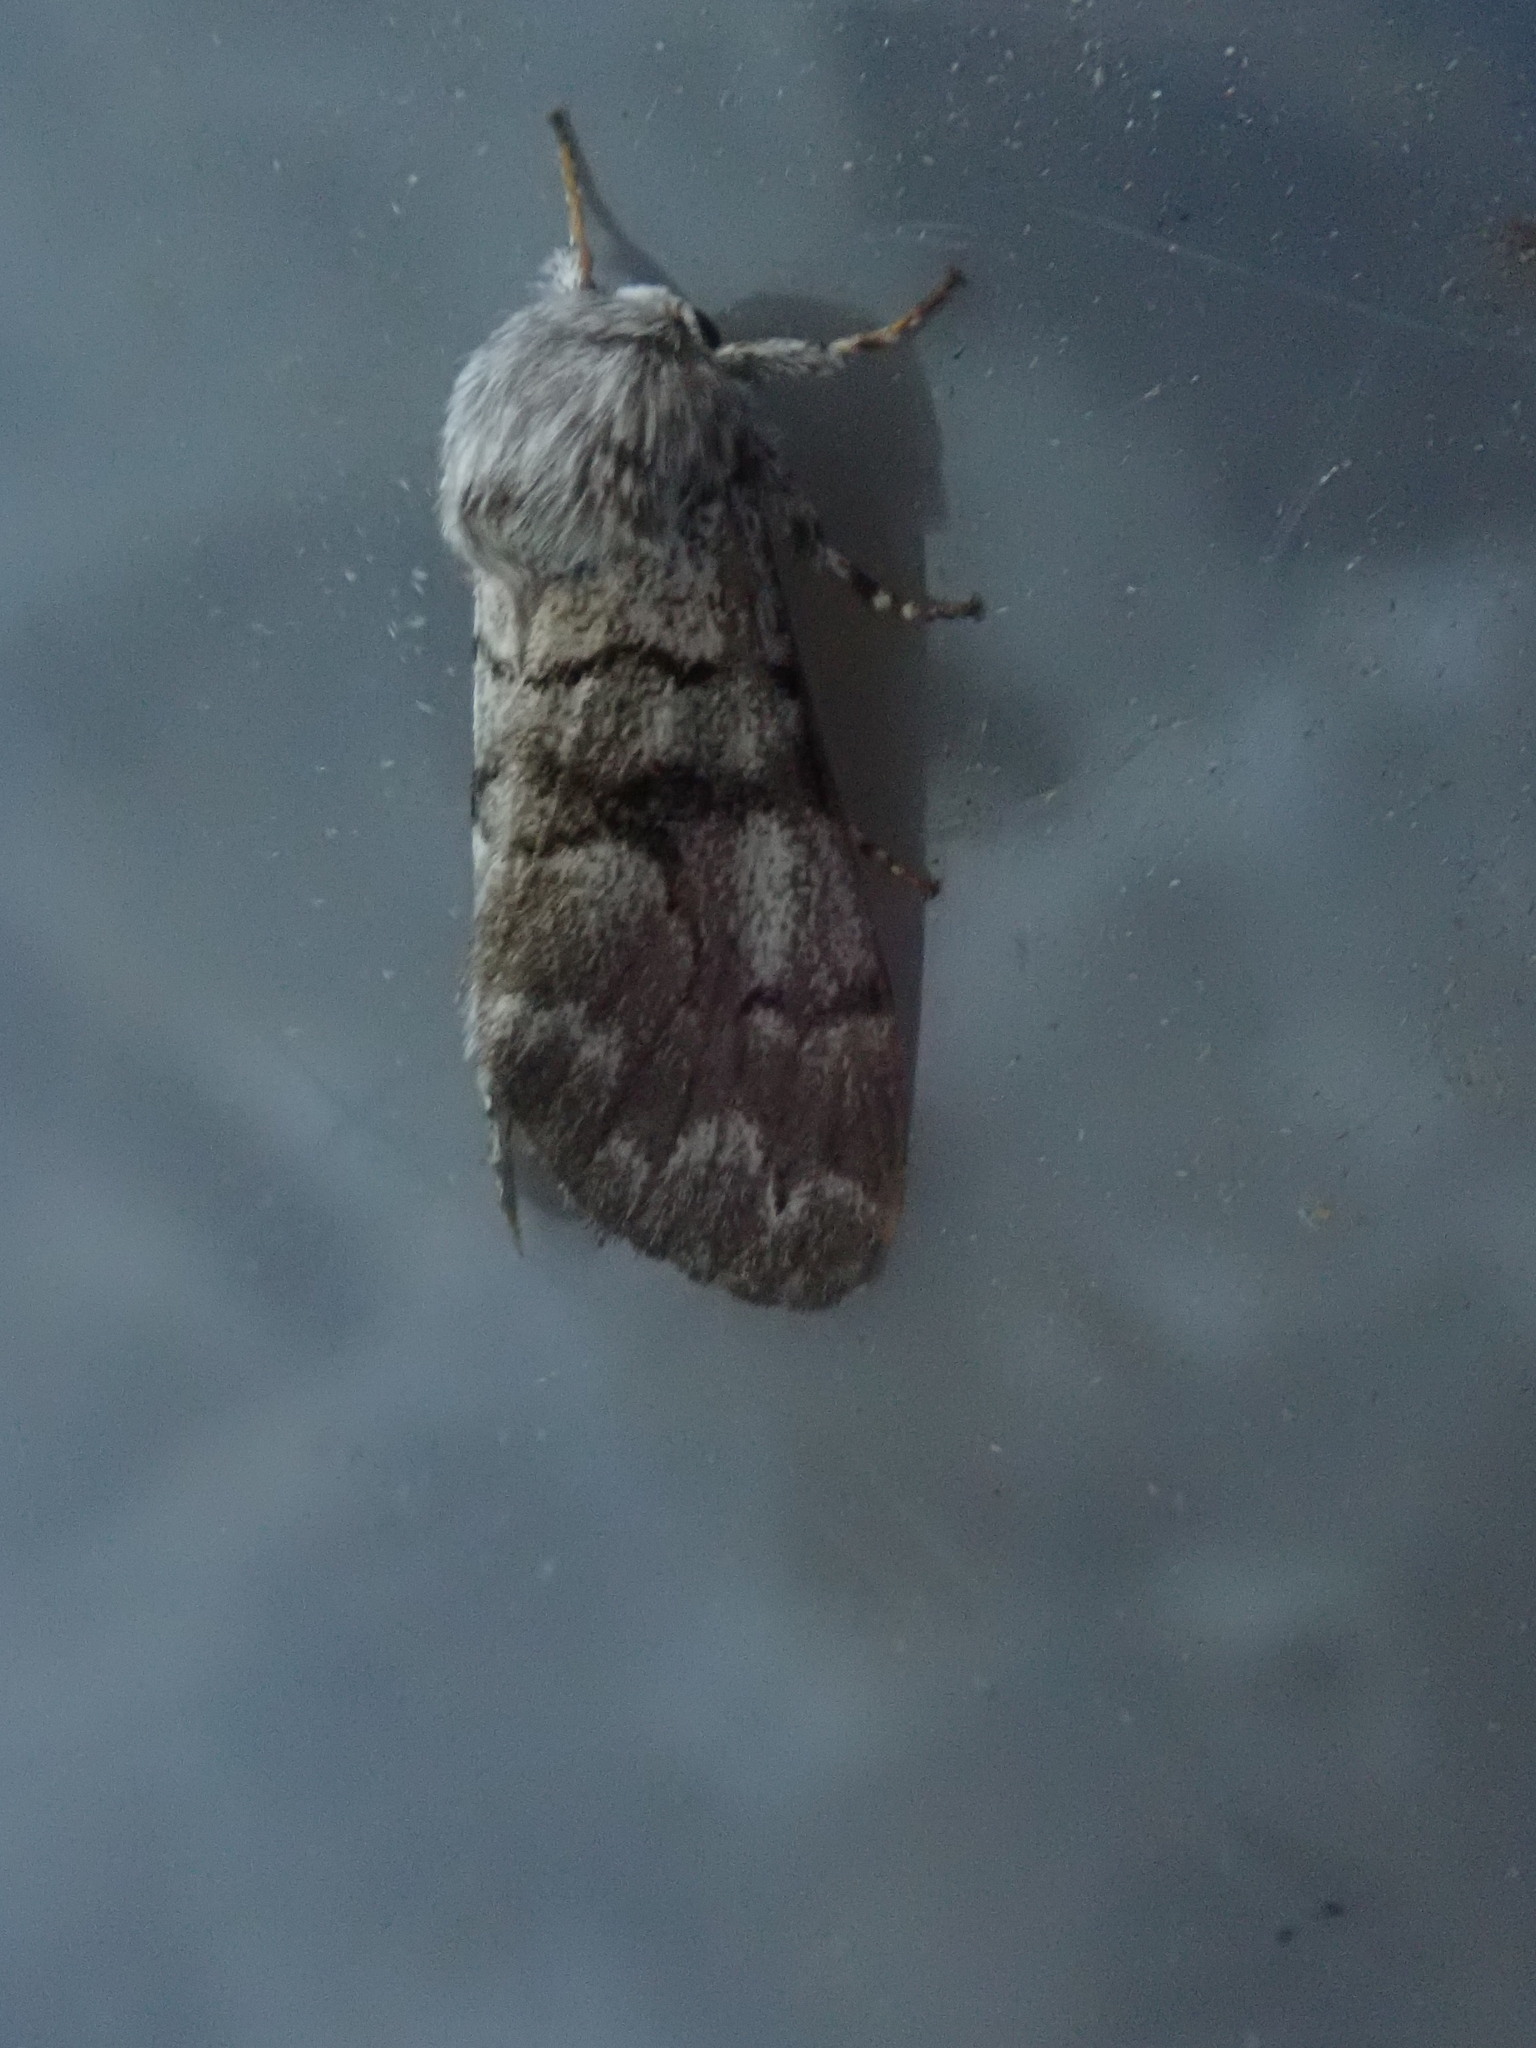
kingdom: Animalia
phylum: Arthropoda
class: Insecta
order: Lepidoptera
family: Noctuidae
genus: Panthea
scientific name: Panthea furcilla
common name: Eastern panthea moth
